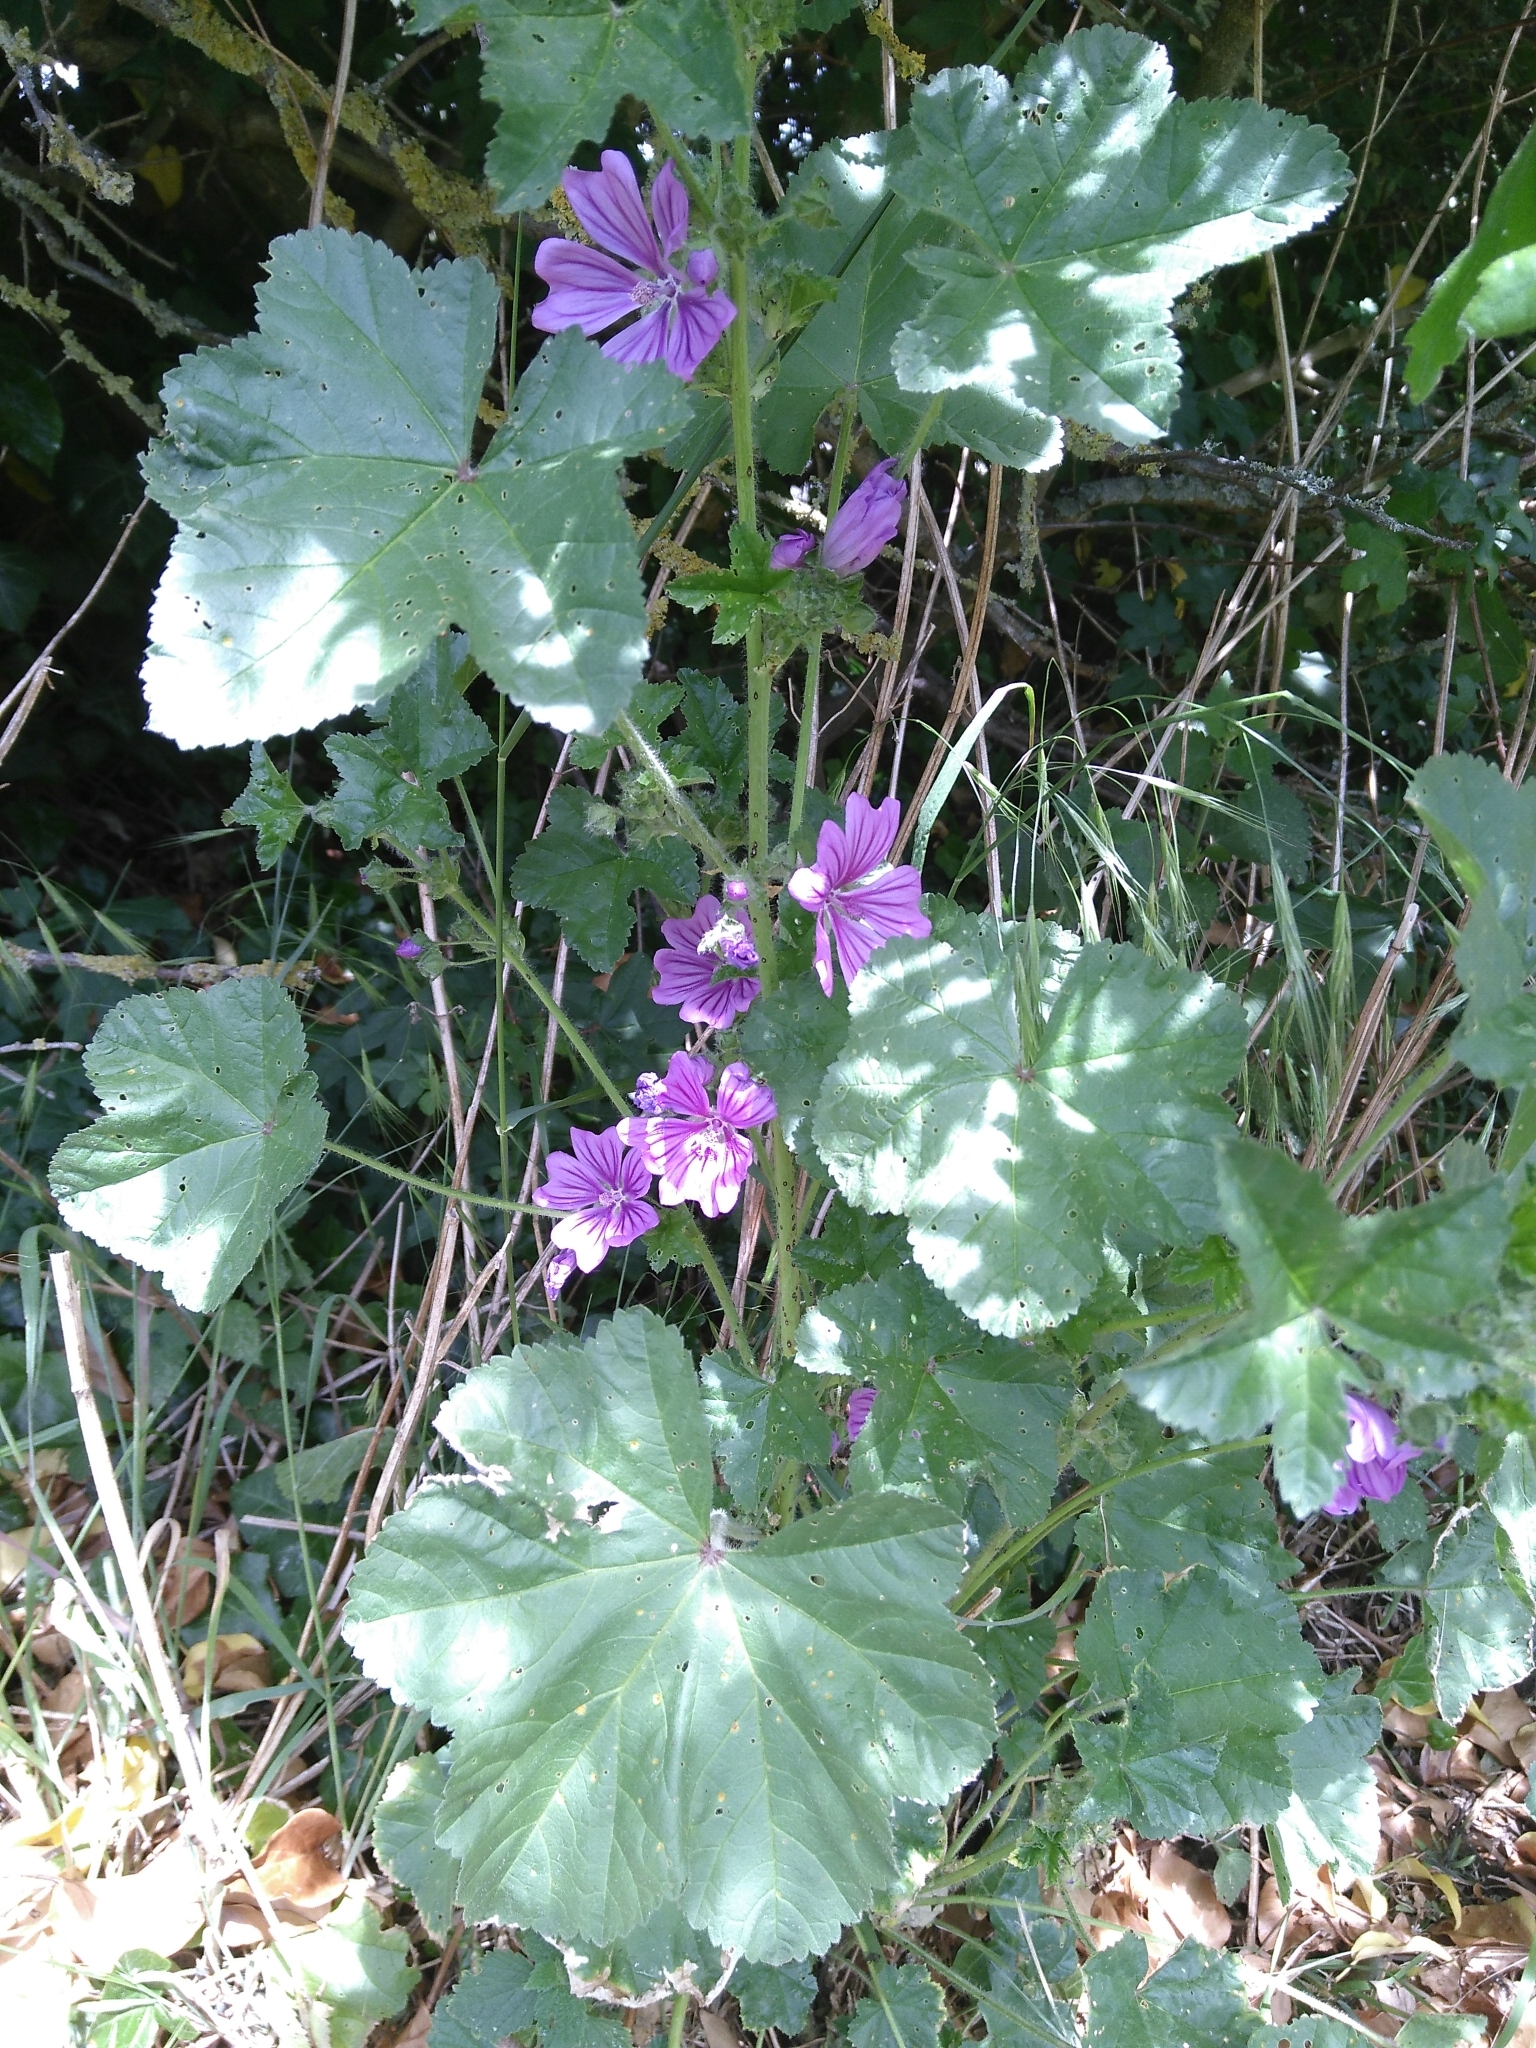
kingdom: Plantae
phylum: Tracheophyta
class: Magnoliopsida
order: Malvales
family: Malvaceae
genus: Malva
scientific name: Malva sylvestris
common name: Common mallow
